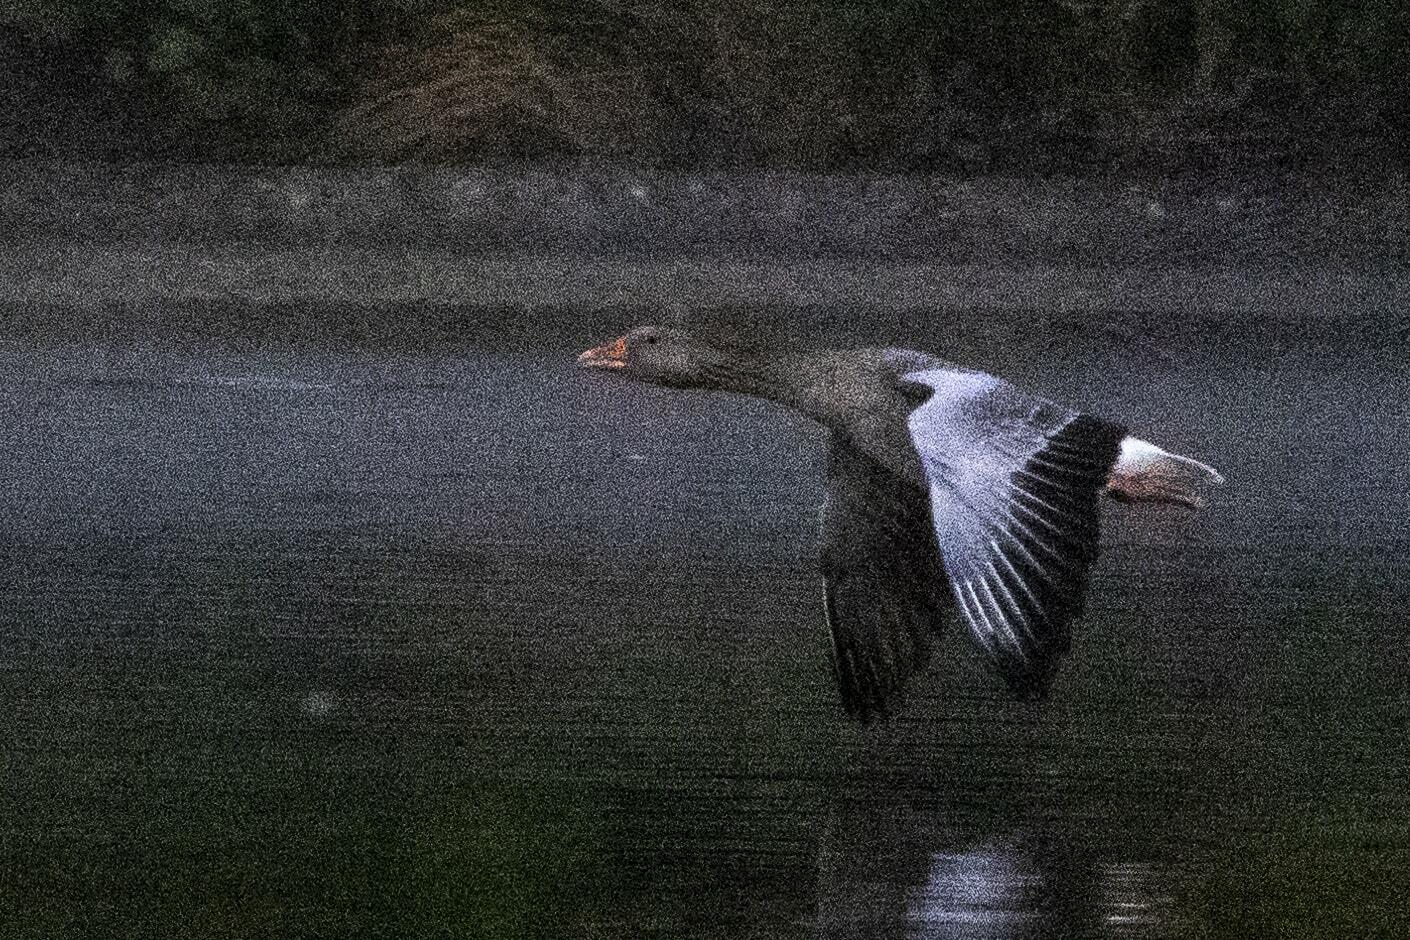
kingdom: Animalia
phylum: Chordata
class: Aves
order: Anseriformes
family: Anatidae
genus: Anser
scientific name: Anser anser
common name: Greylag goose
